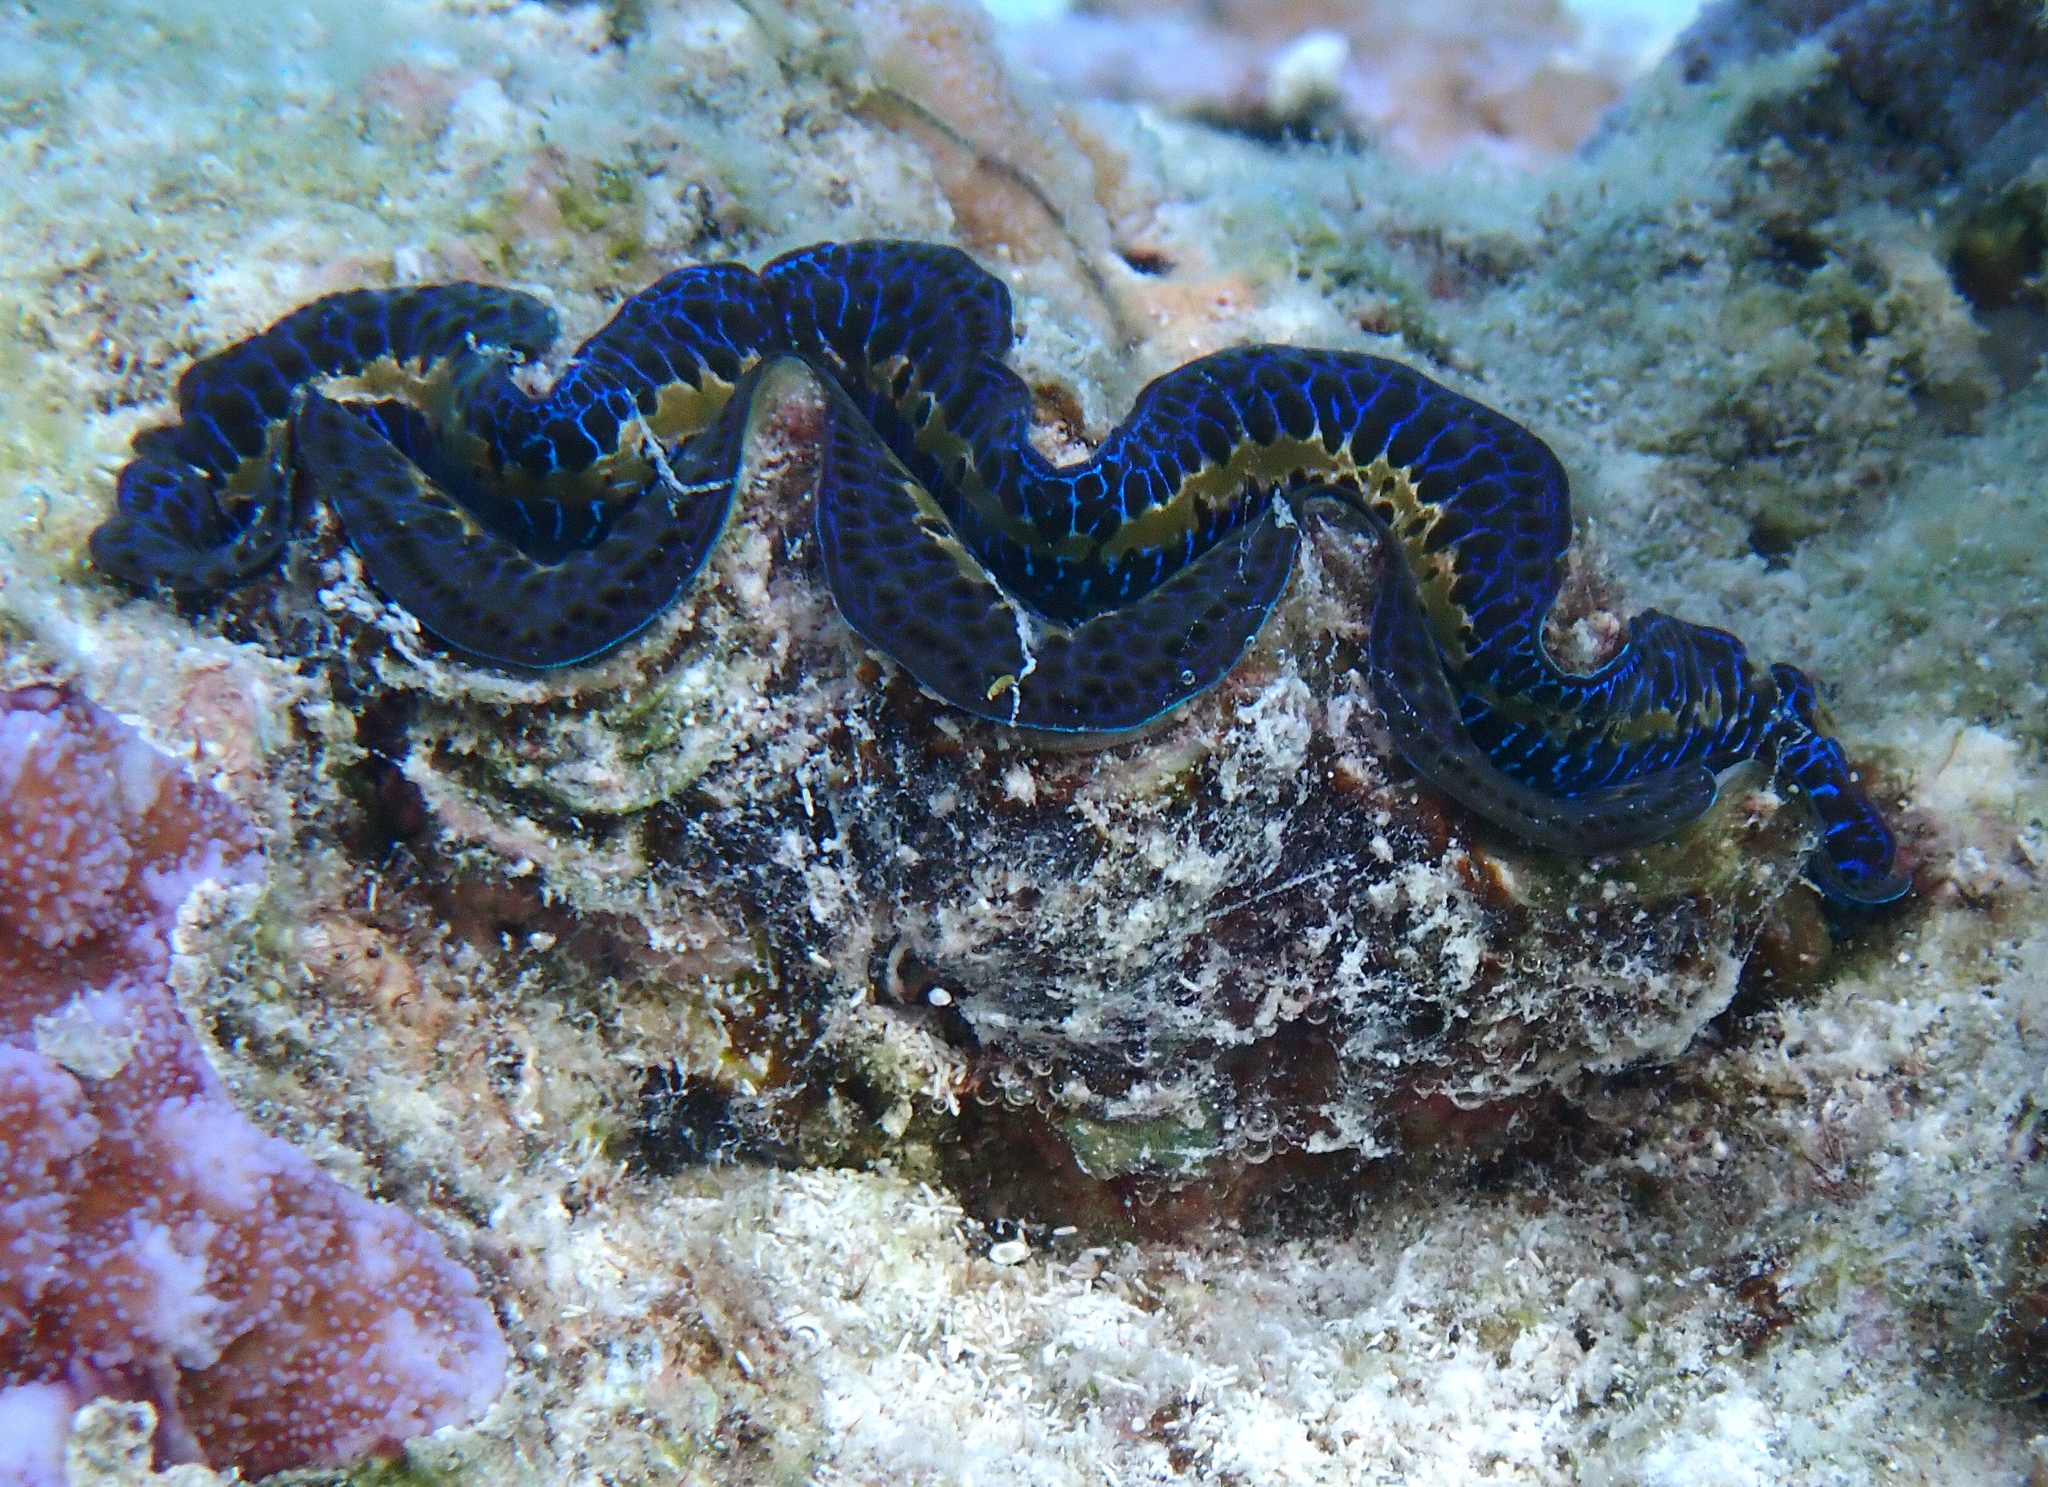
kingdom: Animalia
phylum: Mollusca
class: Bivalvia
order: Cardiida
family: Cardiidae
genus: Tridacna
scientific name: Tridacna maxima
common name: Small giant clam
